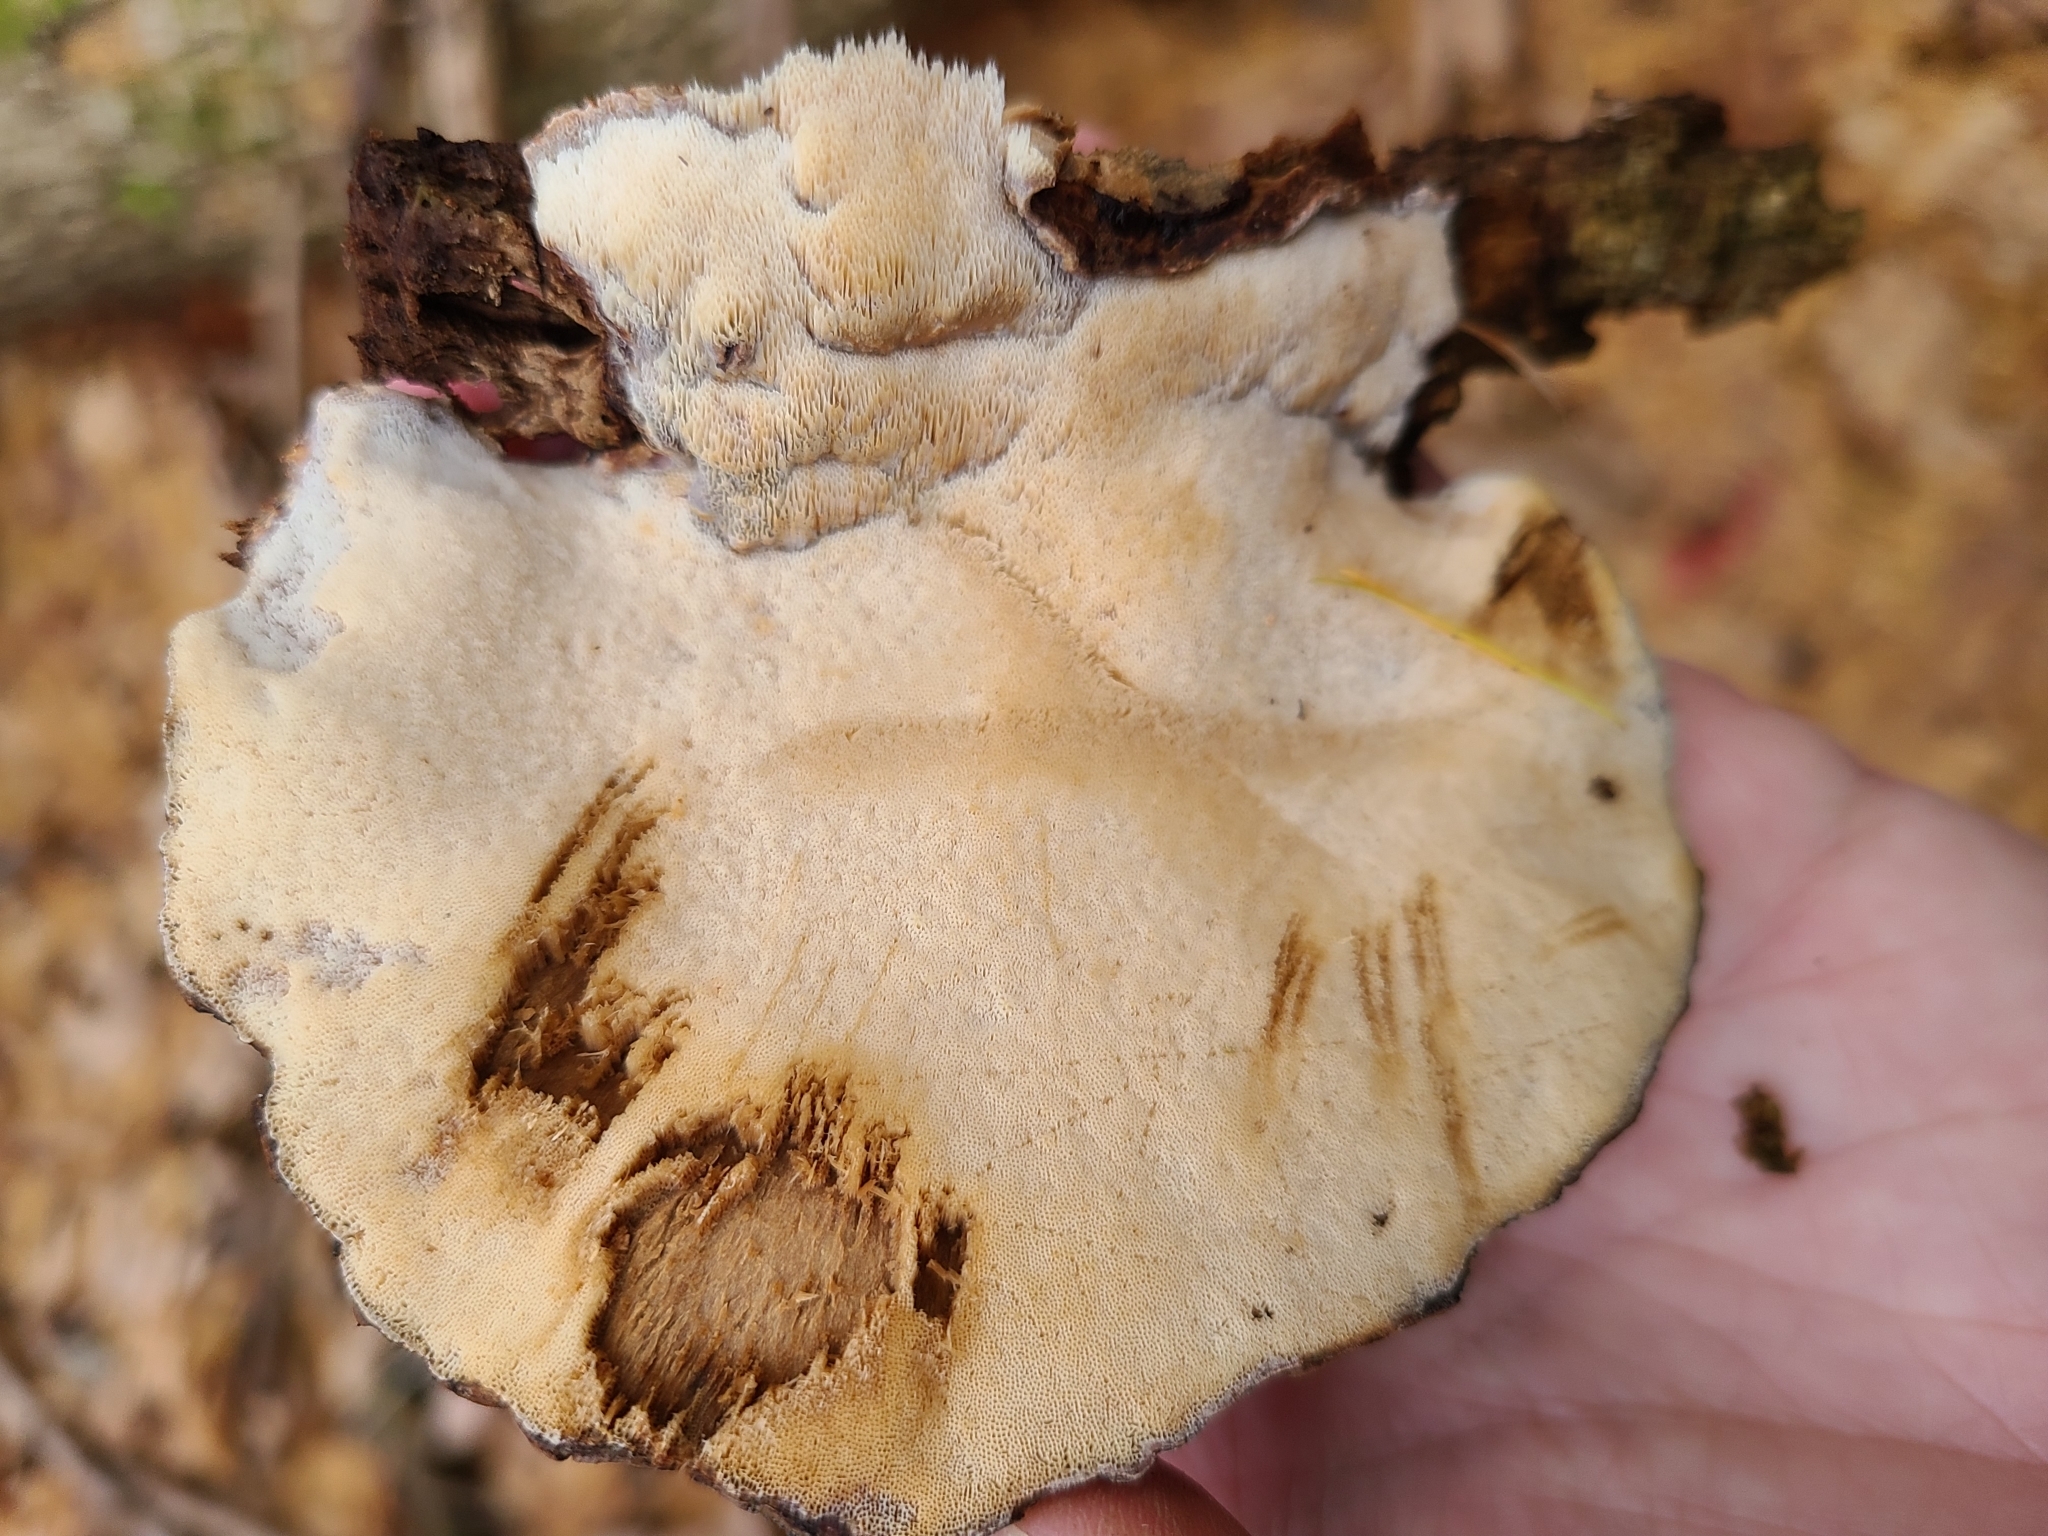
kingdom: Fungi
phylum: Basidiomycota
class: Agaricomycetes
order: Polyporales
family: Ischnodermataceae
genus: Ischnoderma
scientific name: Ischnoderma resinosum
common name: Resinous polypore
